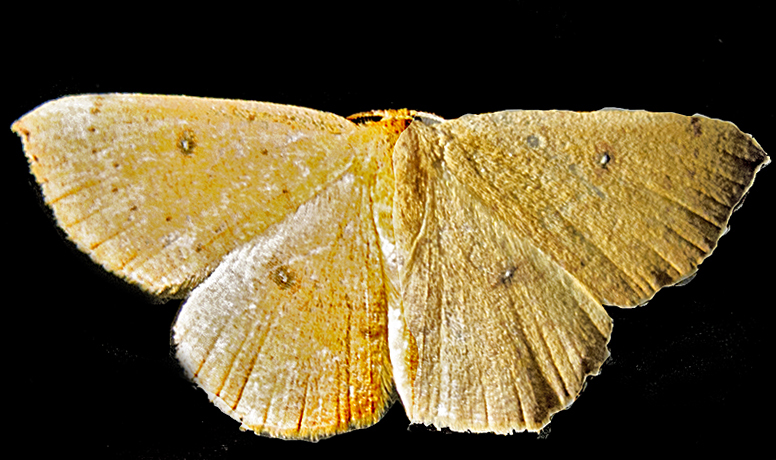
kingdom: Animalia
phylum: Arthropoda
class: Insecta
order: Lepidoptera
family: Geometridae
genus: Cyclophora
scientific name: Cyclophora puppillaria
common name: Blair's mocha
